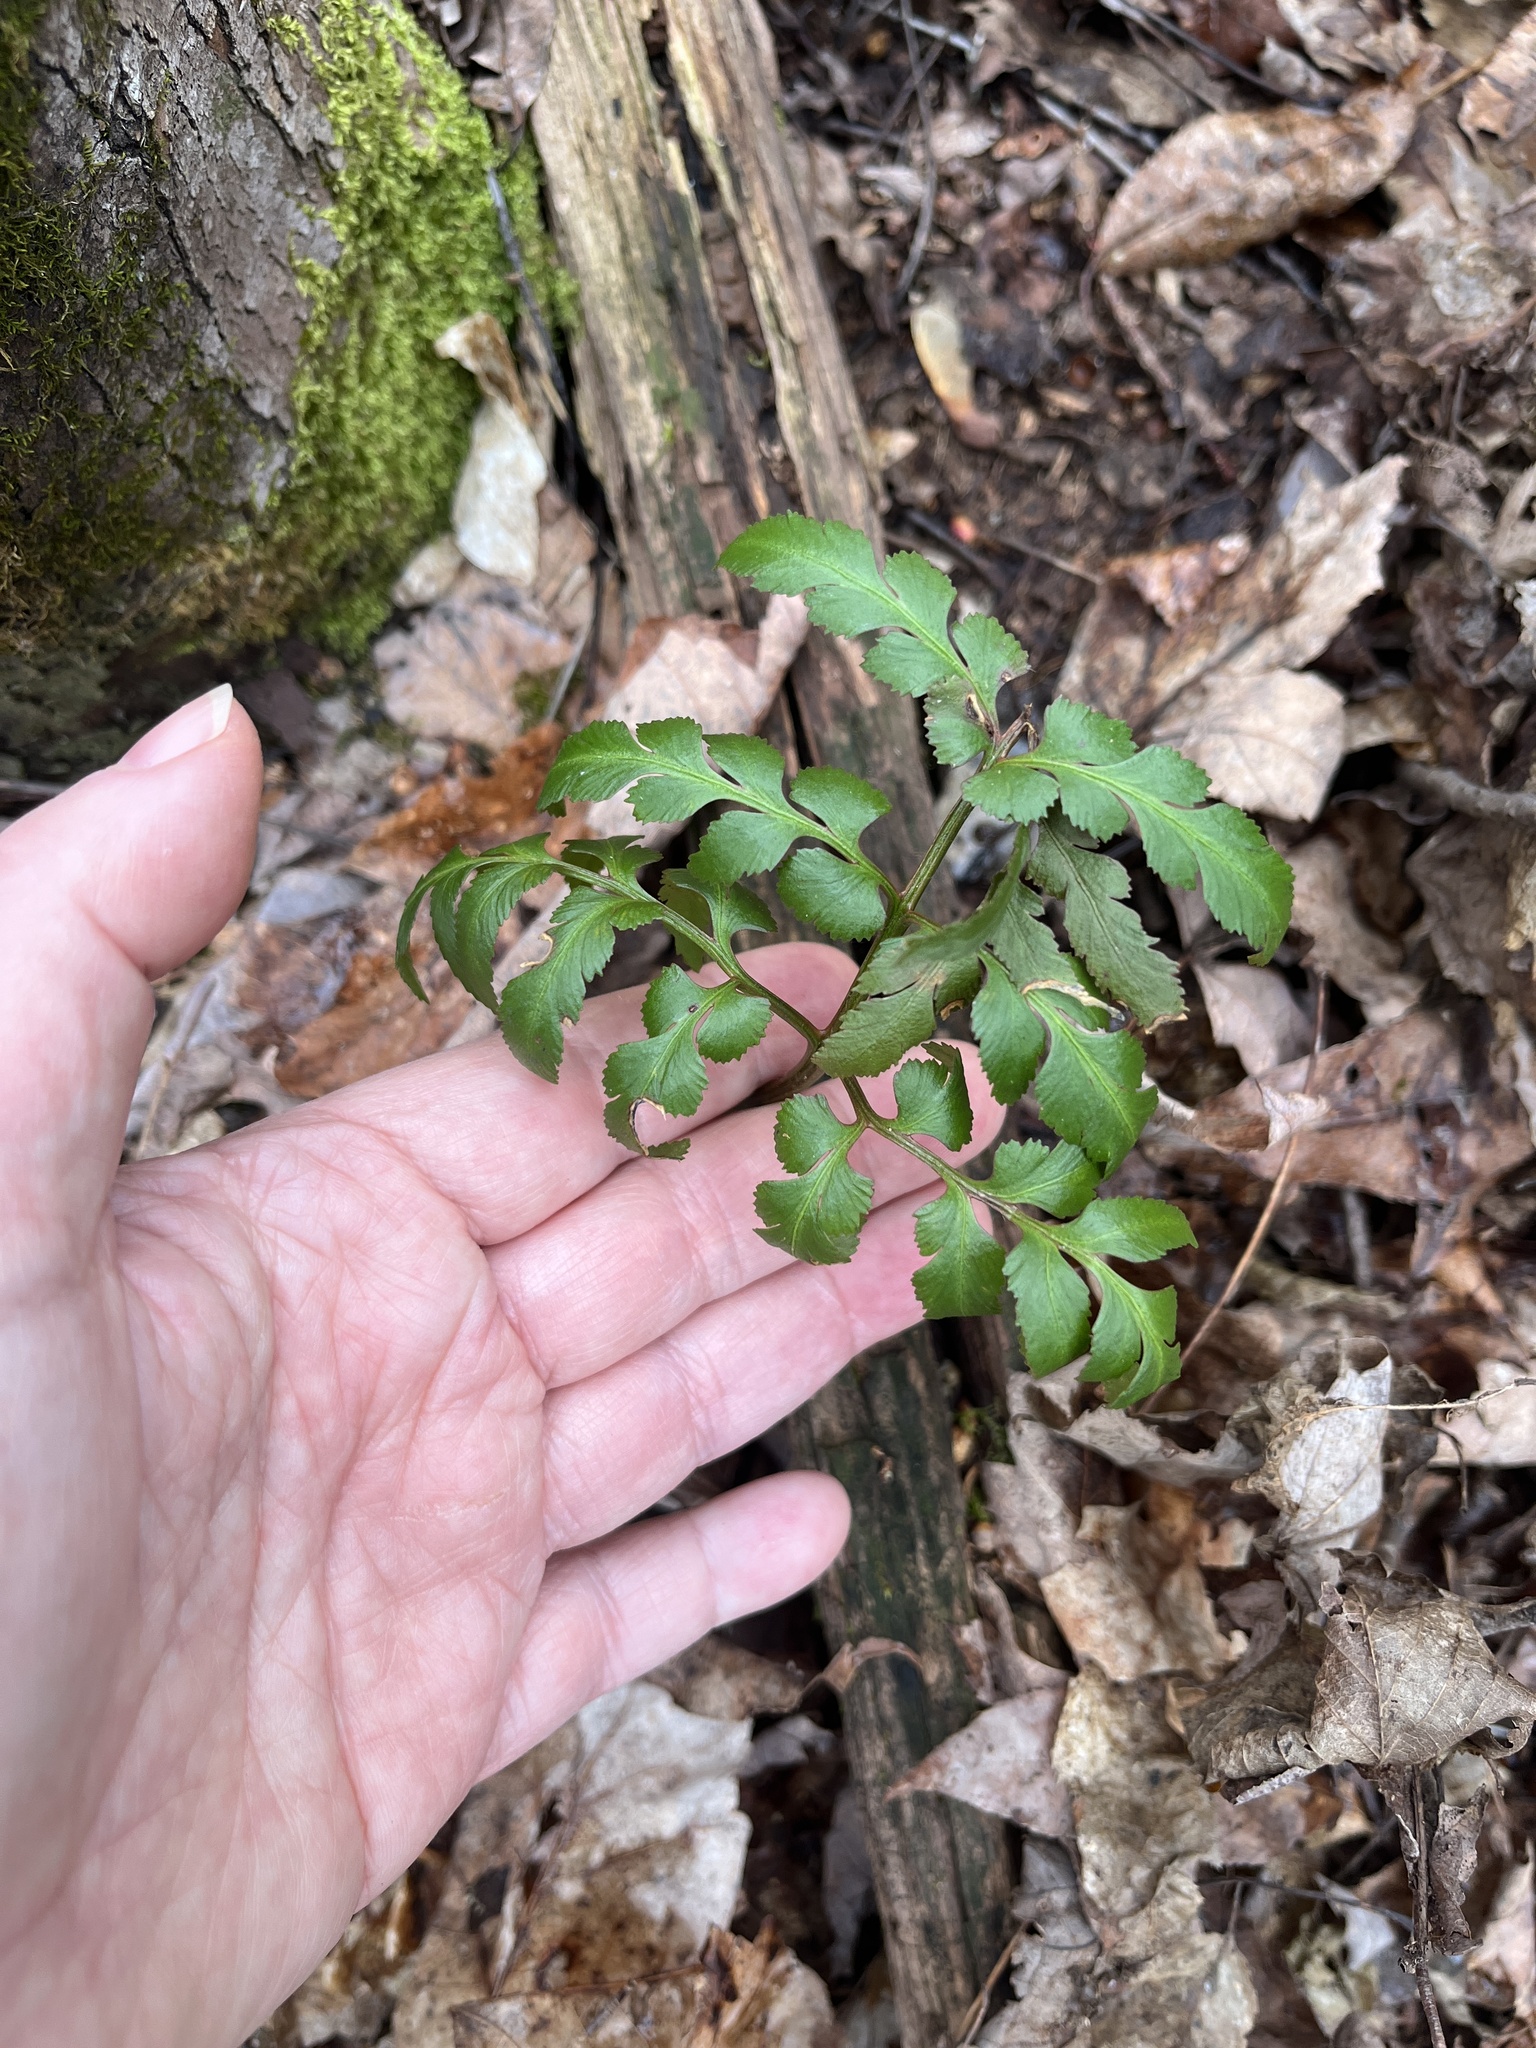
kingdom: Plantae
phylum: Tracheophyta
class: Polypodiopsida
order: Ophioglossales
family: Ophioglossaceae
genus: Sceptridium
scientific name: Sceptridium dissectum
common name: Cut-leaved grapefern
